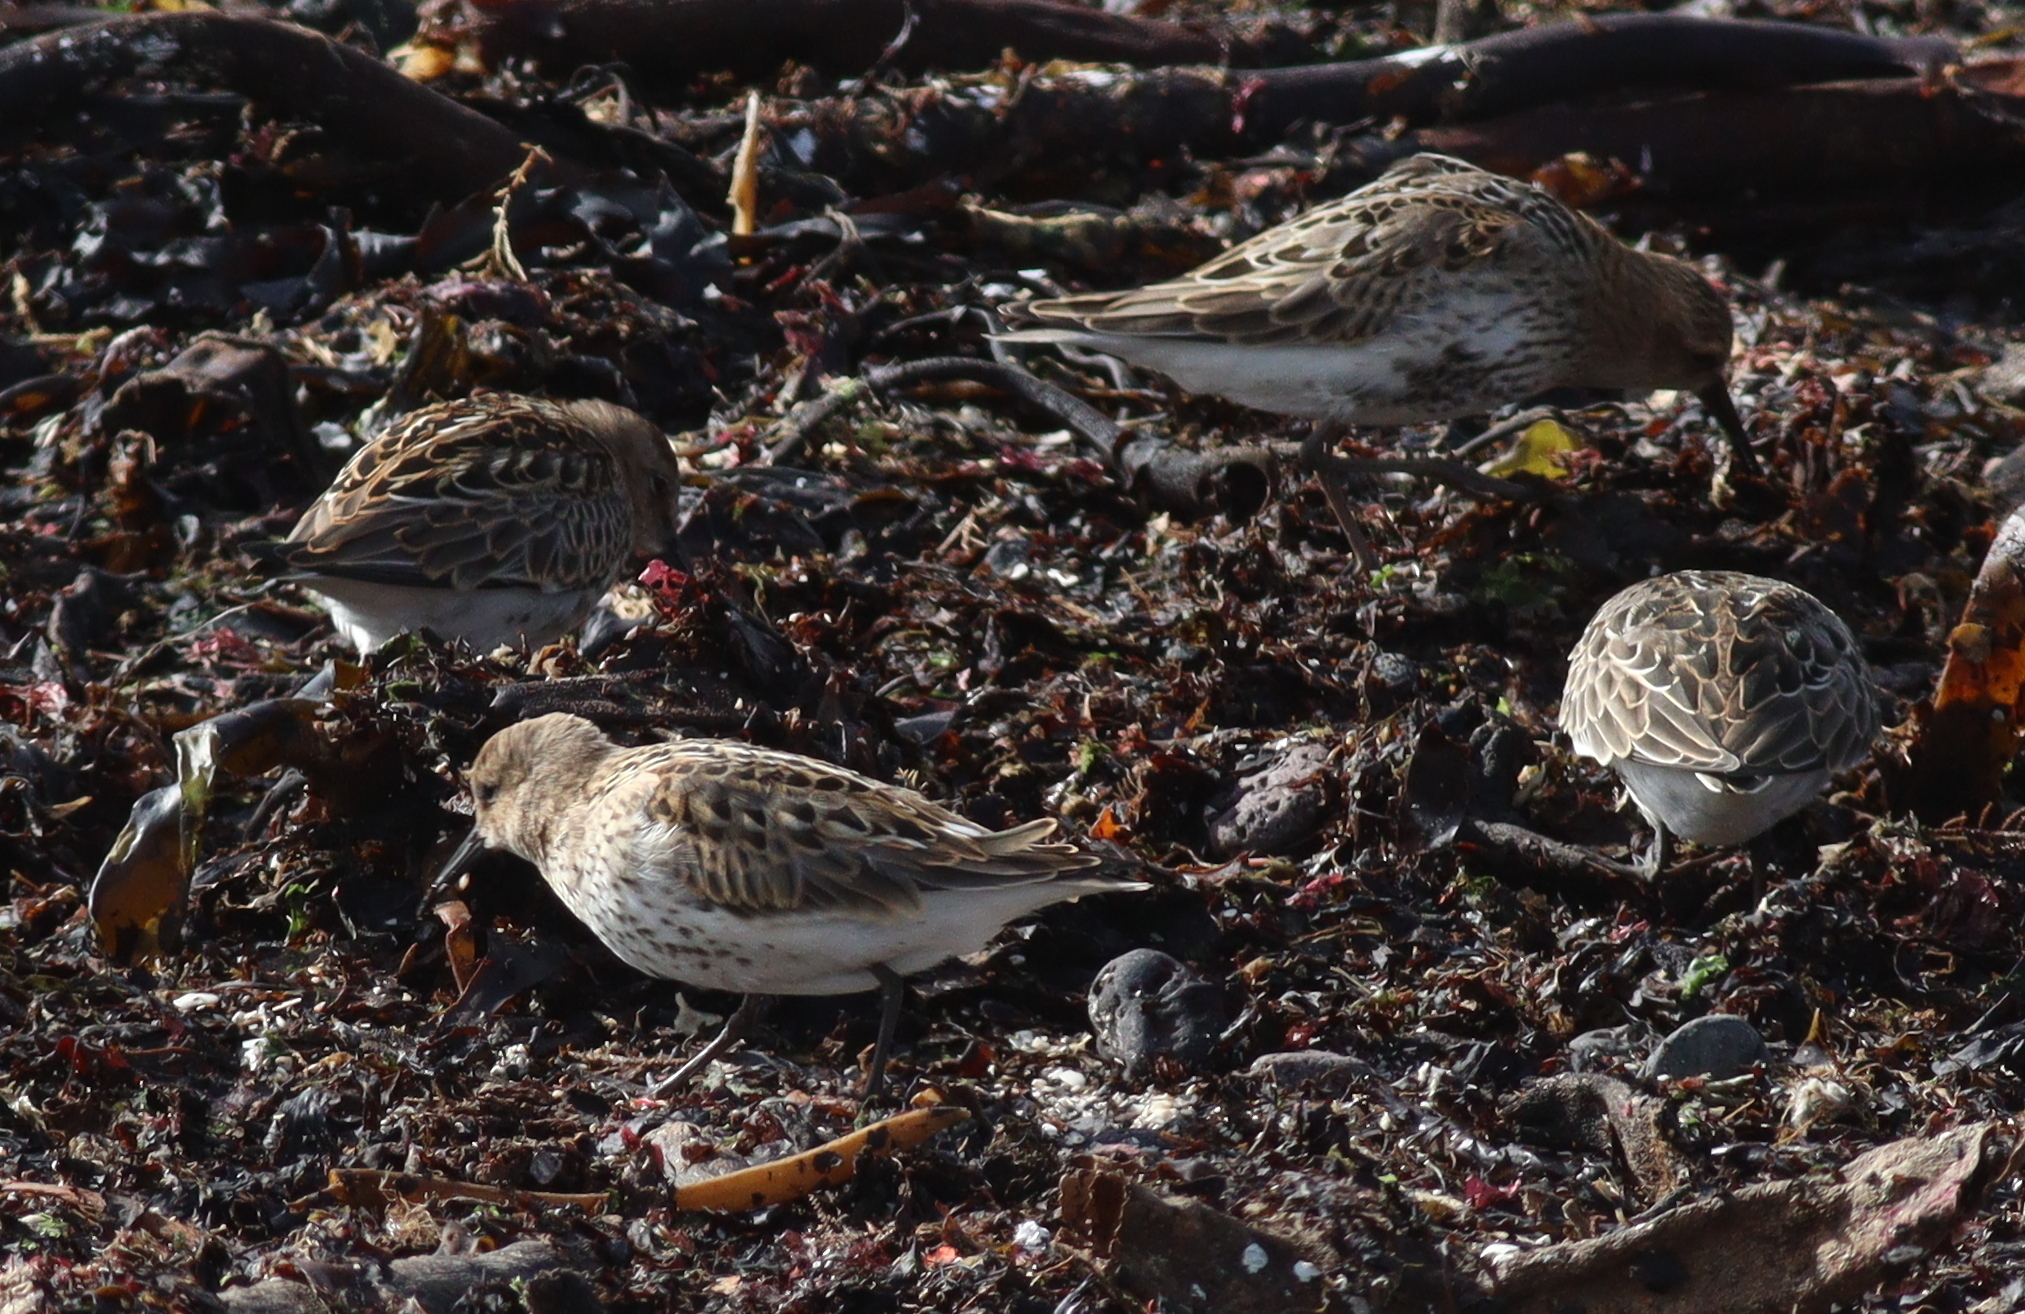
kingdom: Animalia
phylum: Chordata
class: Aves
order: Charadriiformes
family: Scolopacidae
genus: Calidris
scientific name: Calidris alpina
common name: Dunlin
